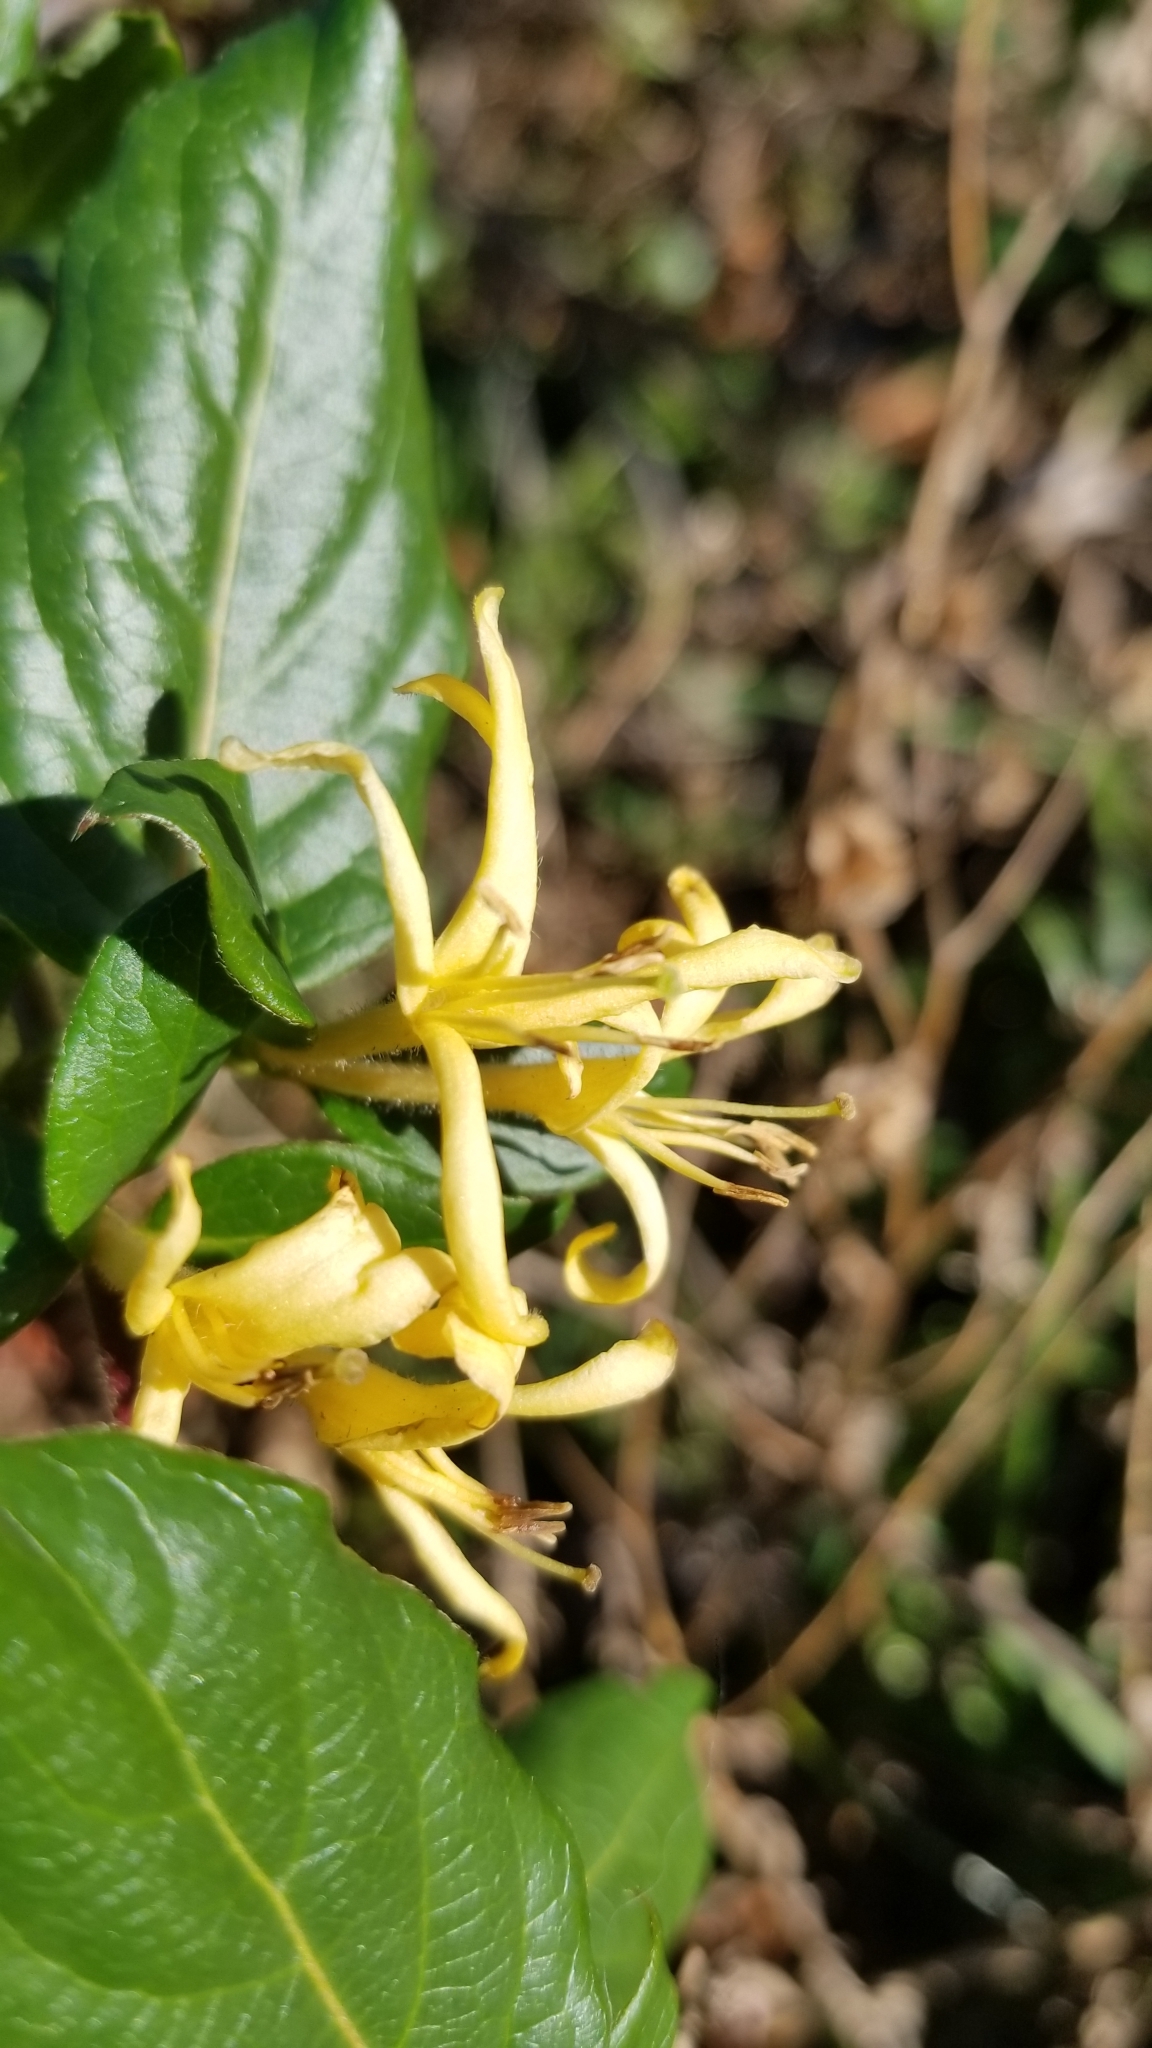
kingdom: Plantae
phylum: Tracheophyta
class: Magnoliopsida
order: Dipsacales
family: Caprifoliaceae
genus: Lonicera
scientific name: Lonicera japonica
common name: Japanese honeysuckle
